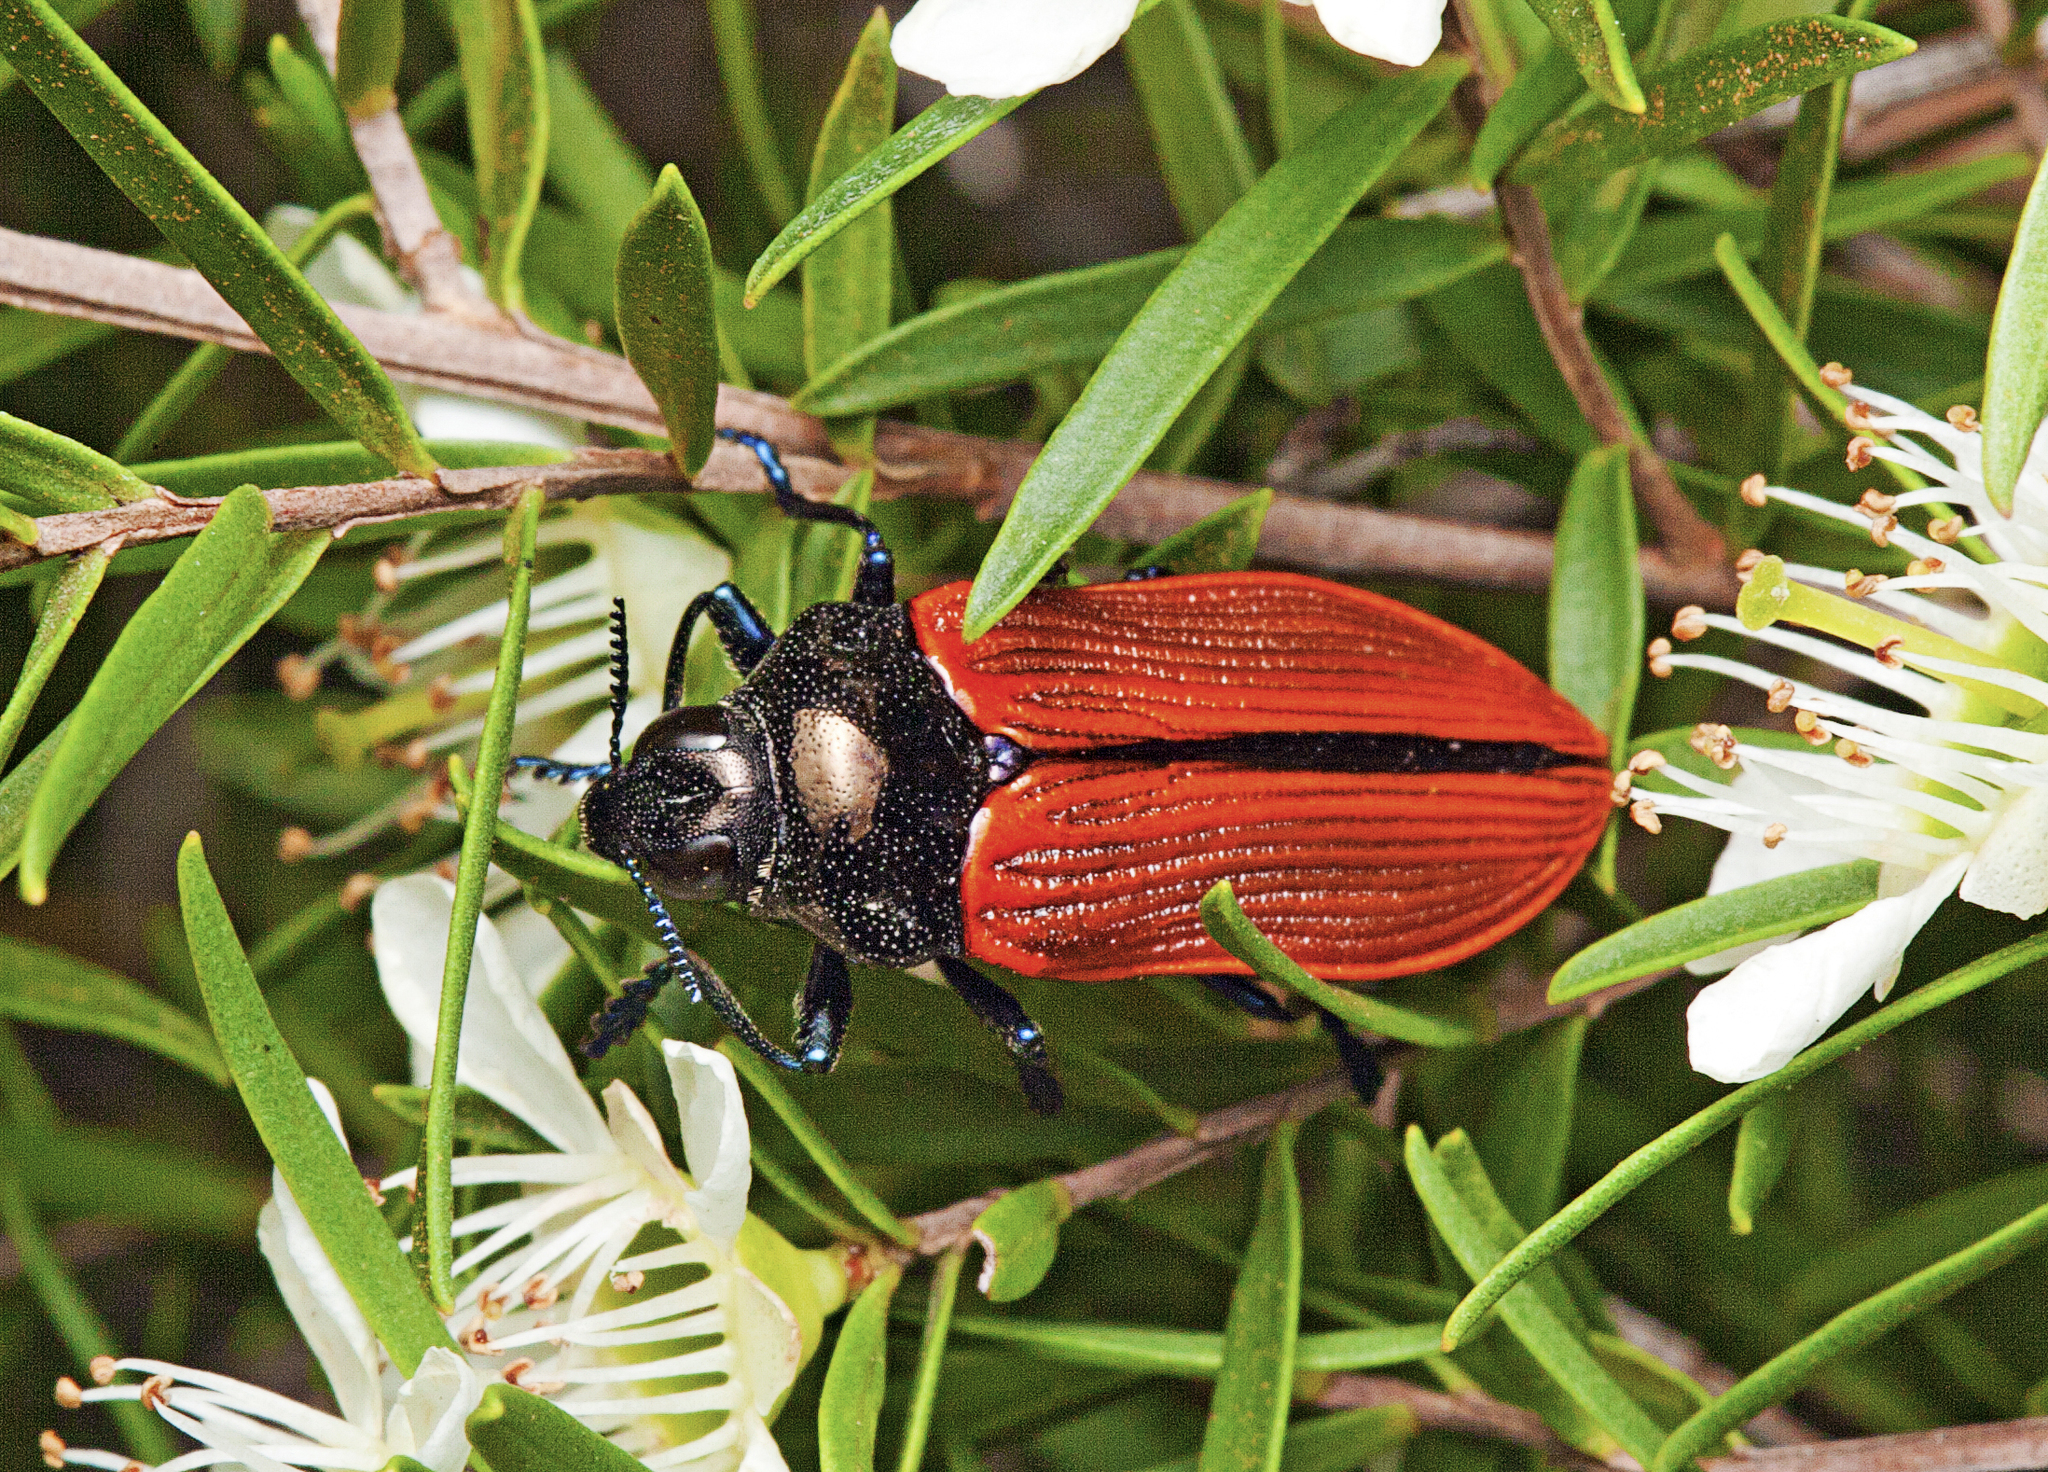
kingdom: Animalia
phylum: Arthropoda
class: Insecta
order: Coleoptera
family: Buprestidae
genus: Castiarina
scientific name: Castiarina rufipennis
